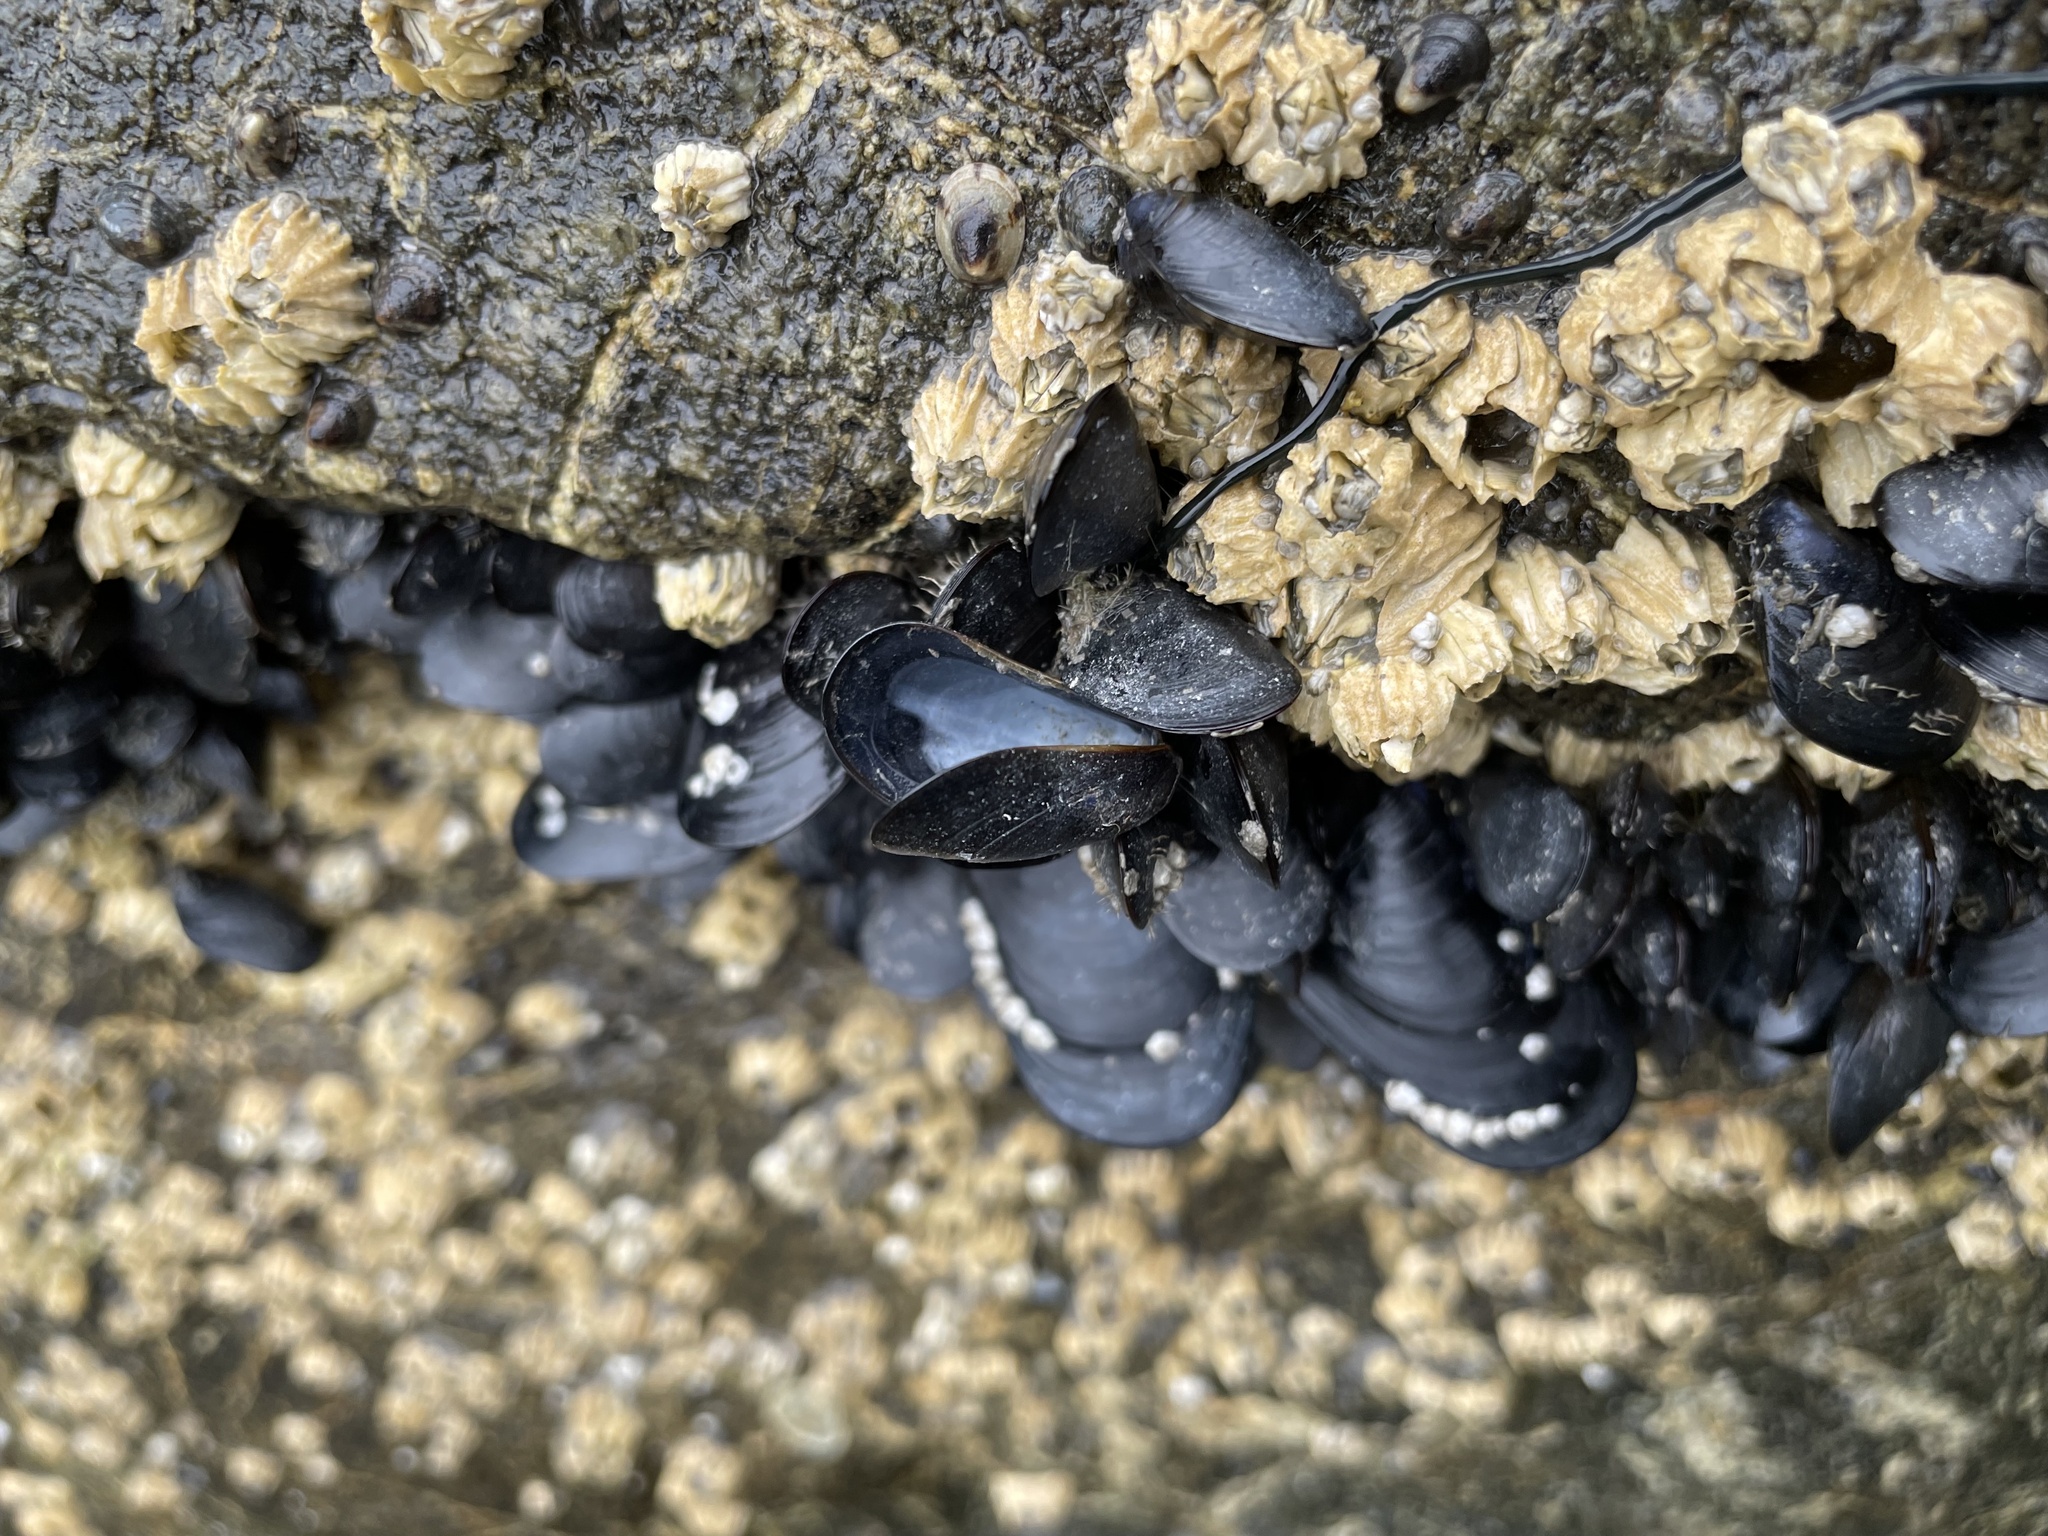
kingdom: Animalia
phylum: Mollusca
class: Bivalvia
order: Mytilida
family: Mytilidae
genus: Mytilus
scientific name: Mytilus trossulus
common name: Northern blue mussel
